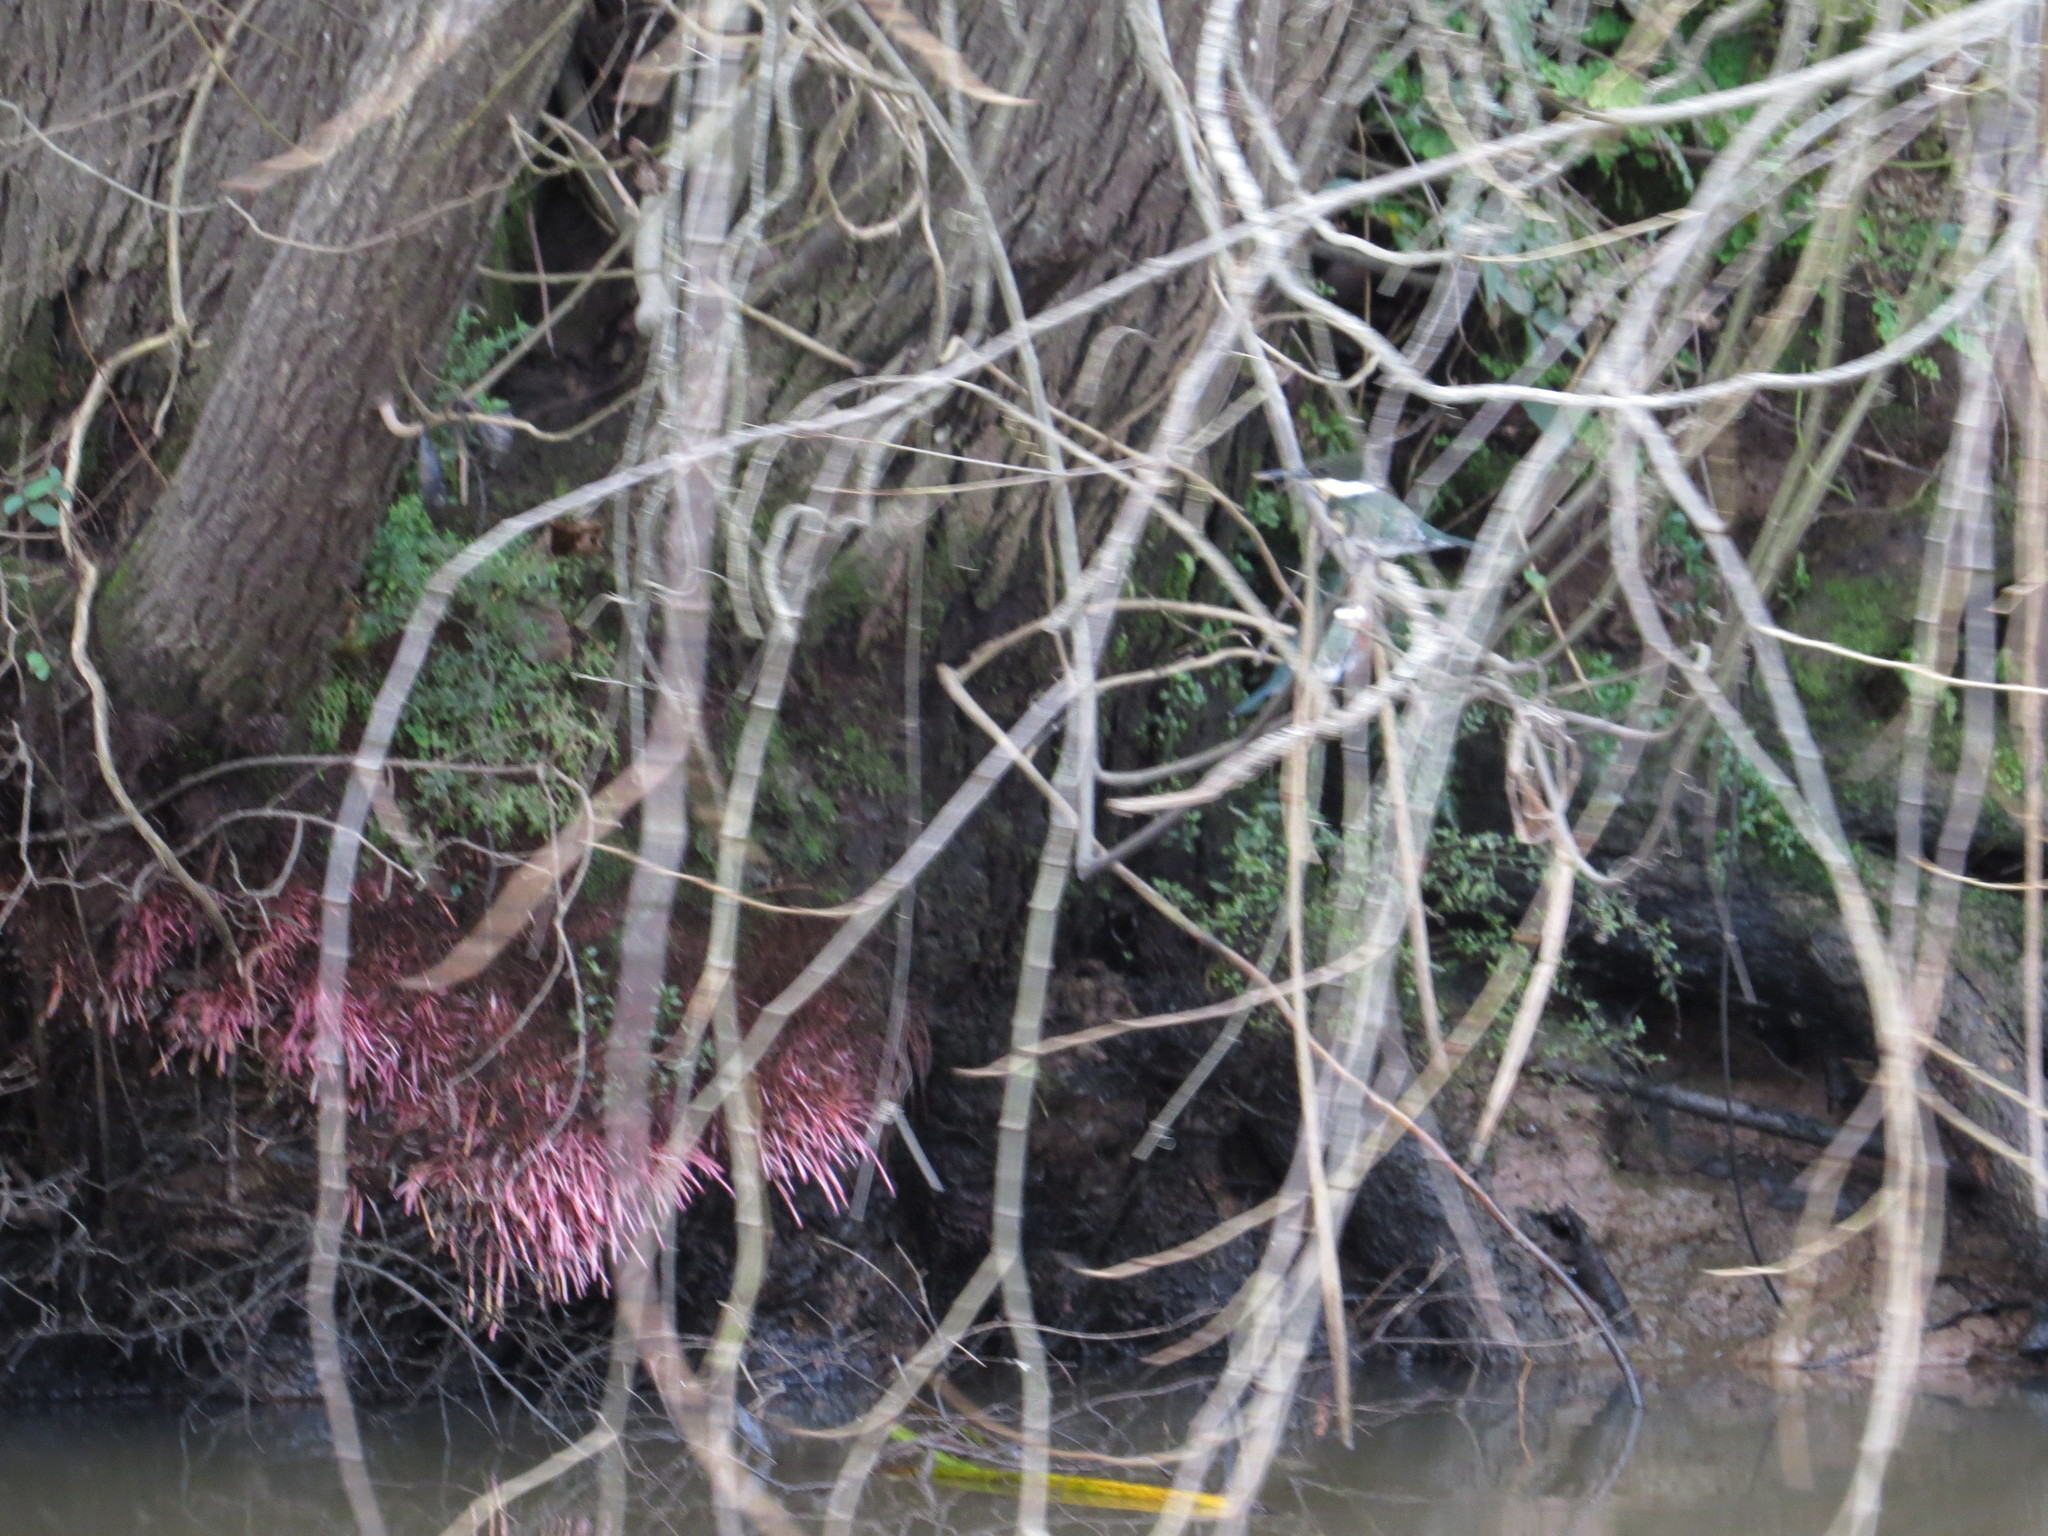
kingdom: Animalia
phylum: Chordata
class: Aves
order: Coraciiformes
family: Alcedinidae
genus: Chloroceryle
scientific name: Chloroceryle americana
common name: Green kingfisher
